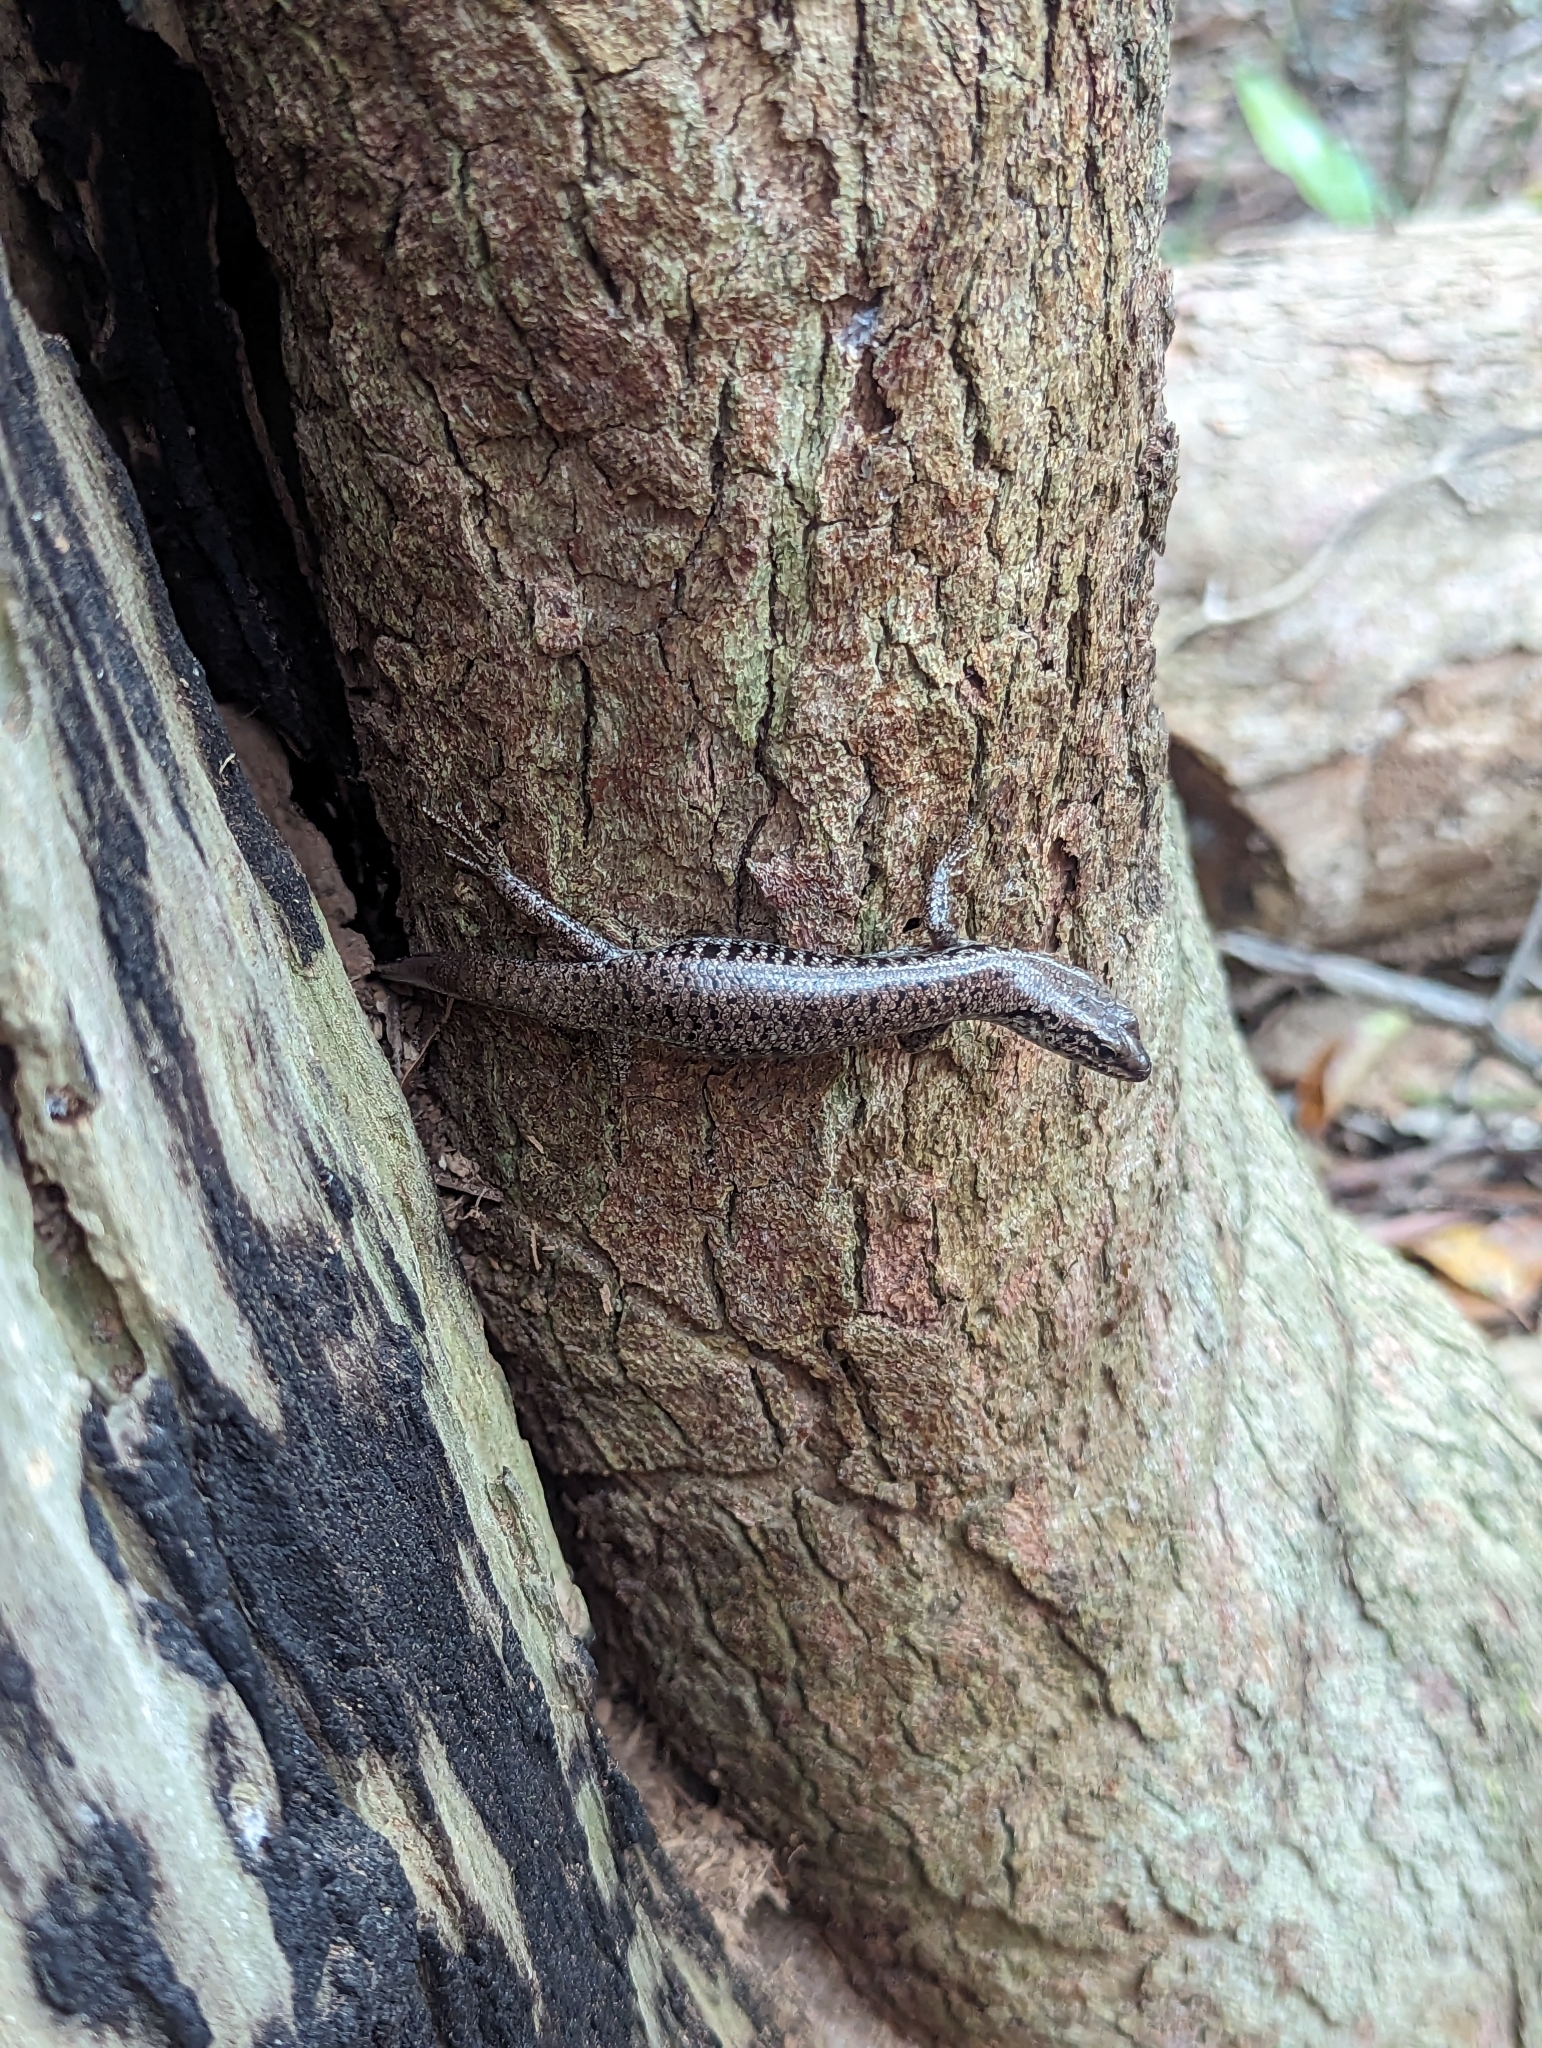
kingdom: Animalia
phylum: Chordata
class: Squamata
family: Scincidae
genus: Concinnia
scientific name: Concinnia tenuis
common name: Bar-sided forest-skink
